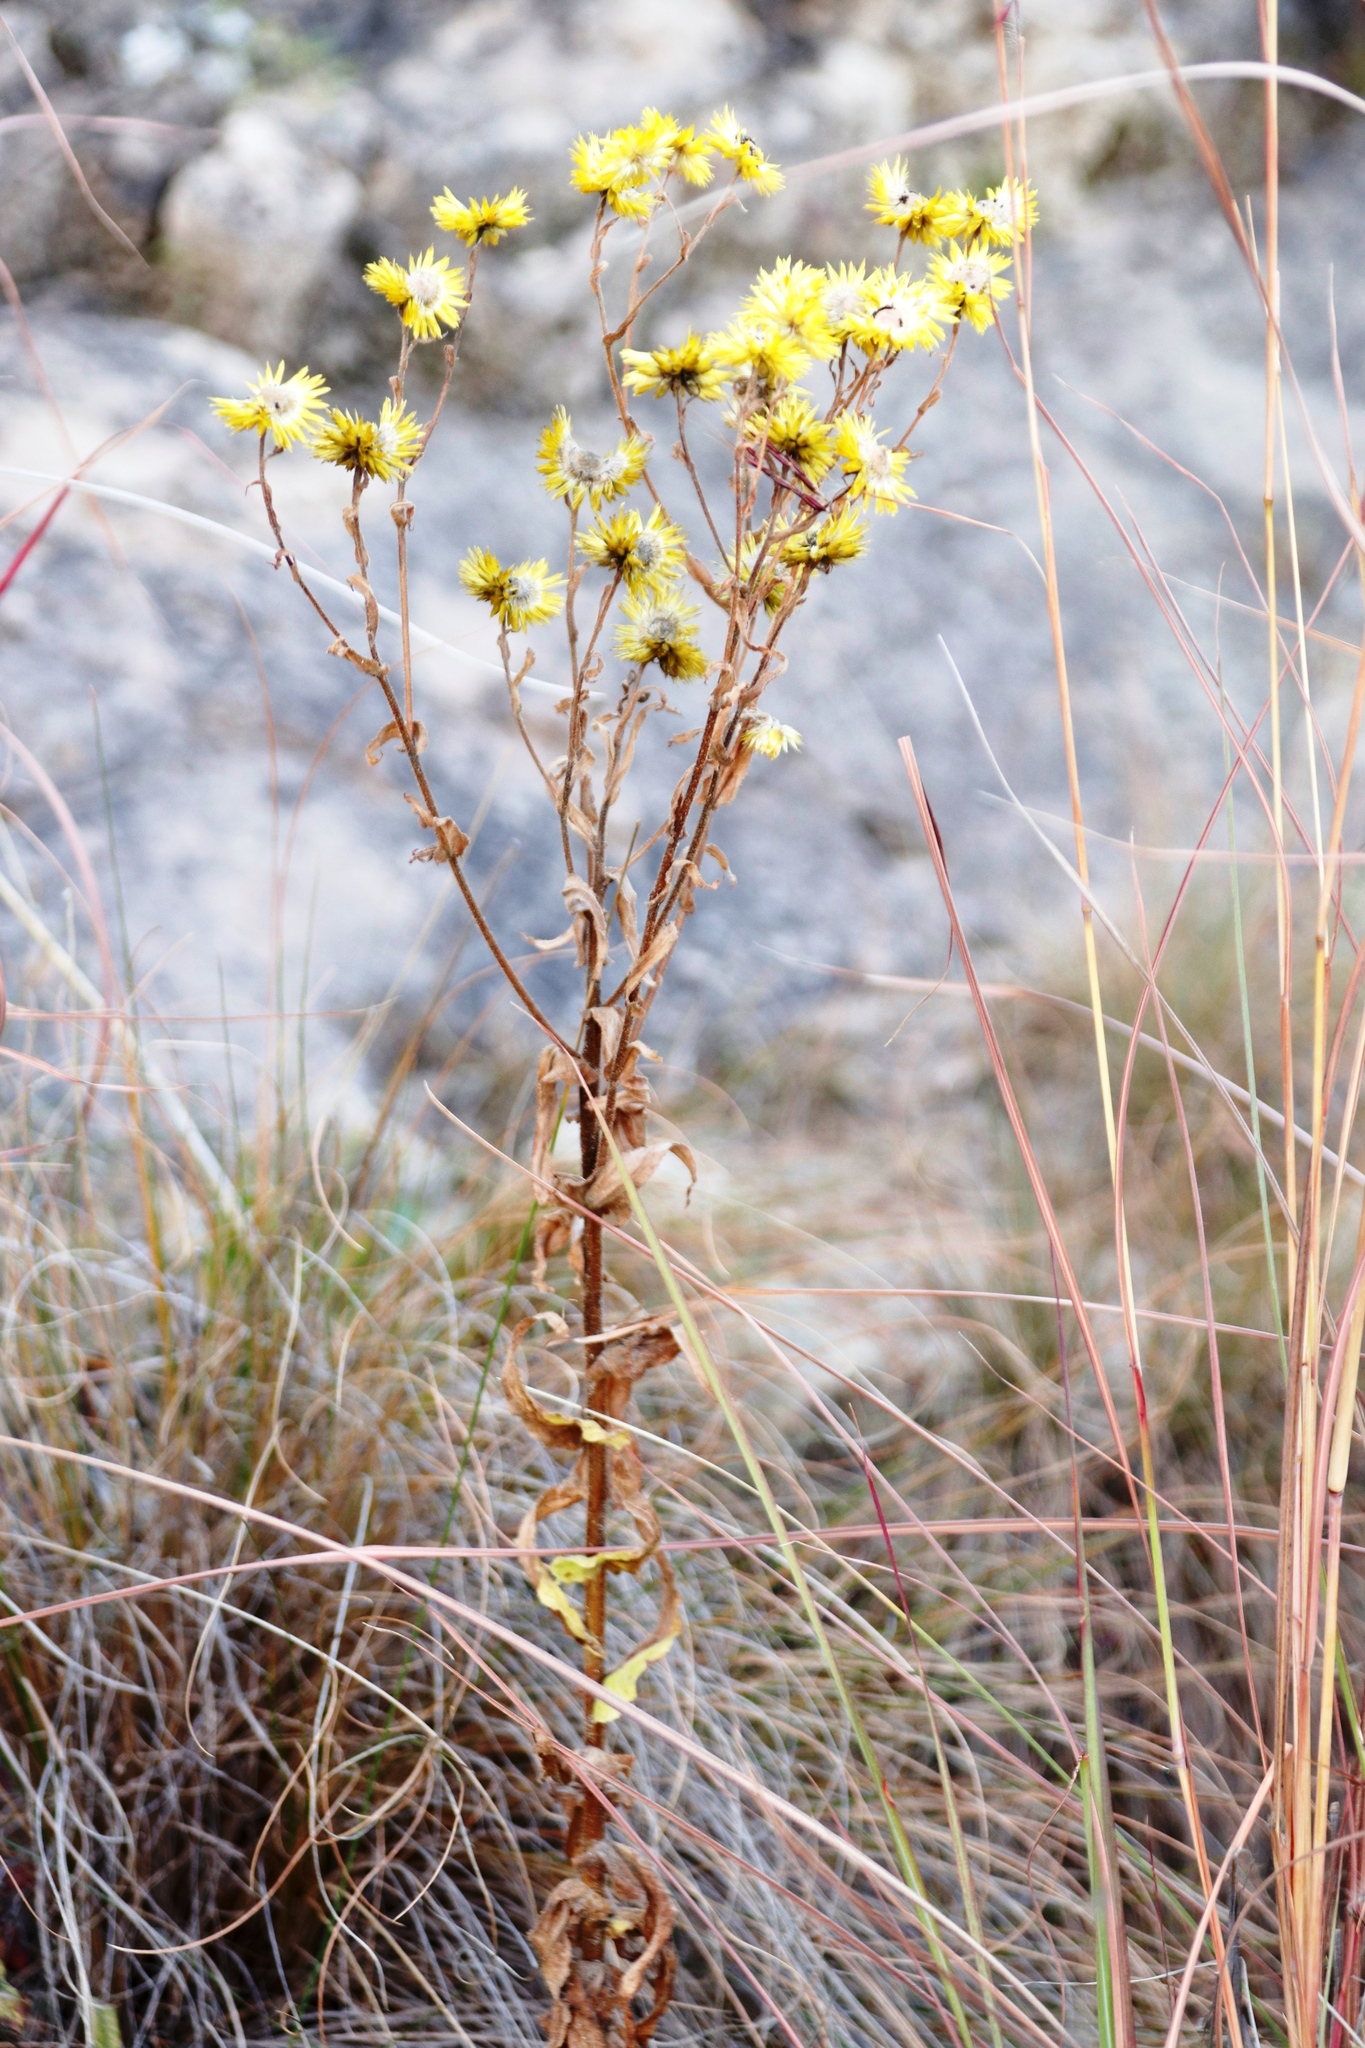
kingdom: Plantae
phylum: Tracheophyta
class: Magnoliopsida
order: Asterales
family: Asteraceae
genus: Helichrysum
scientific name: Helichrysum cooperi
